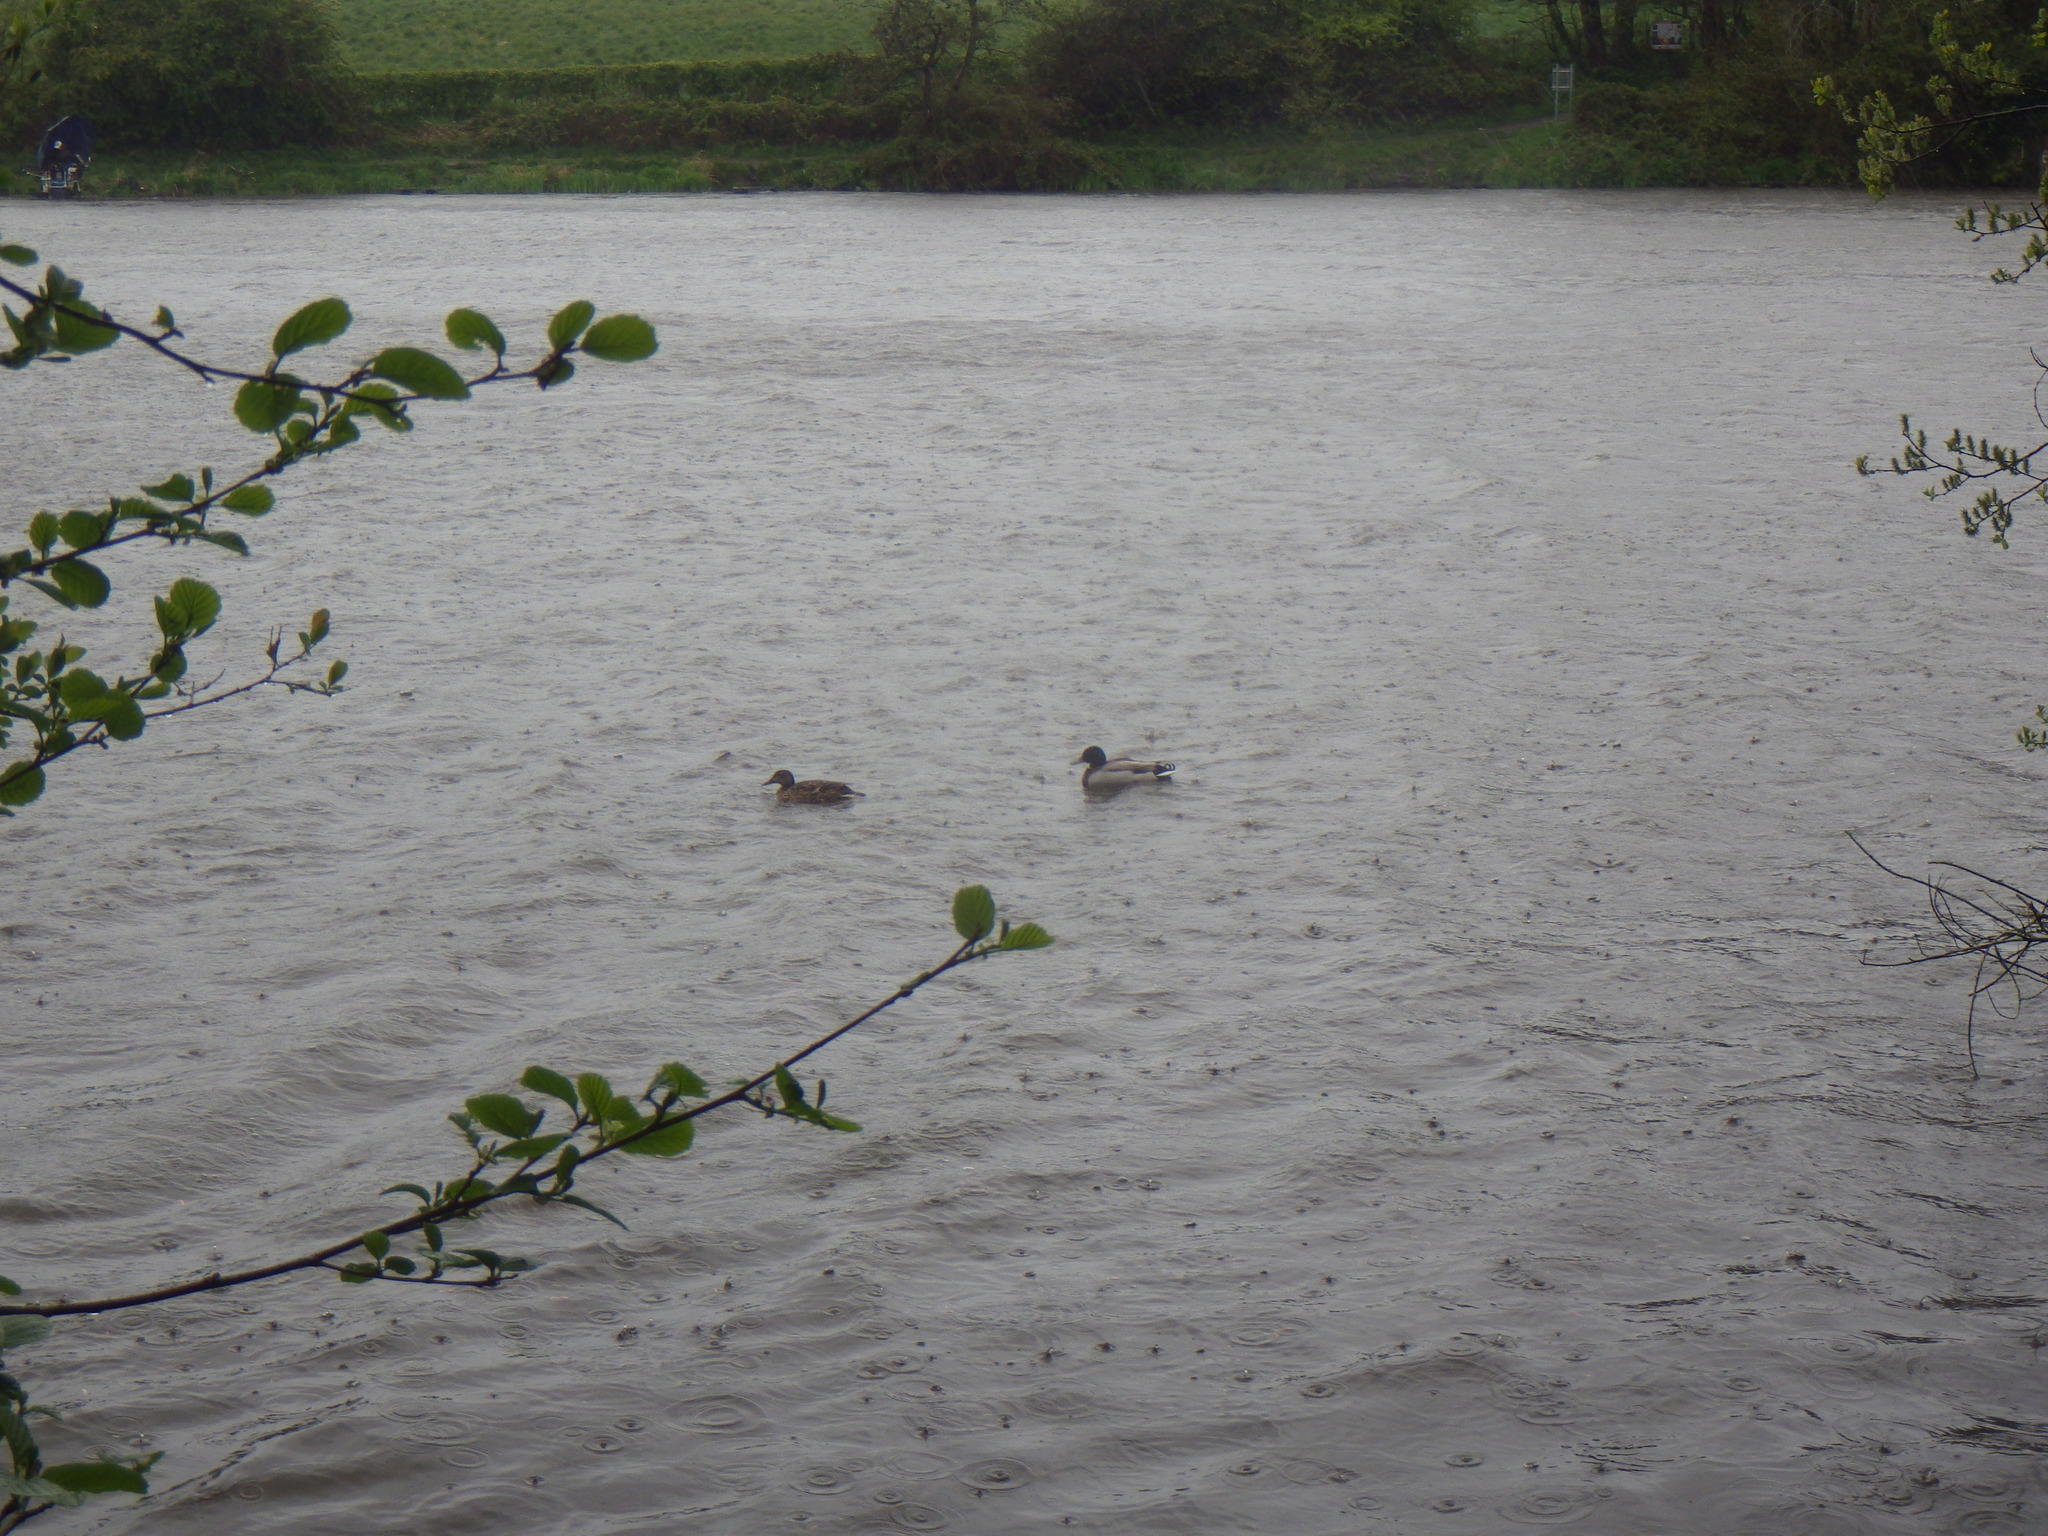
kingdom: Animalia
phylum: Chordata
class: Aves
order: Anseriformes
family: Anatidae
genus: Anas
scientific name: Anas platyrhynchos
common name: Mallard
